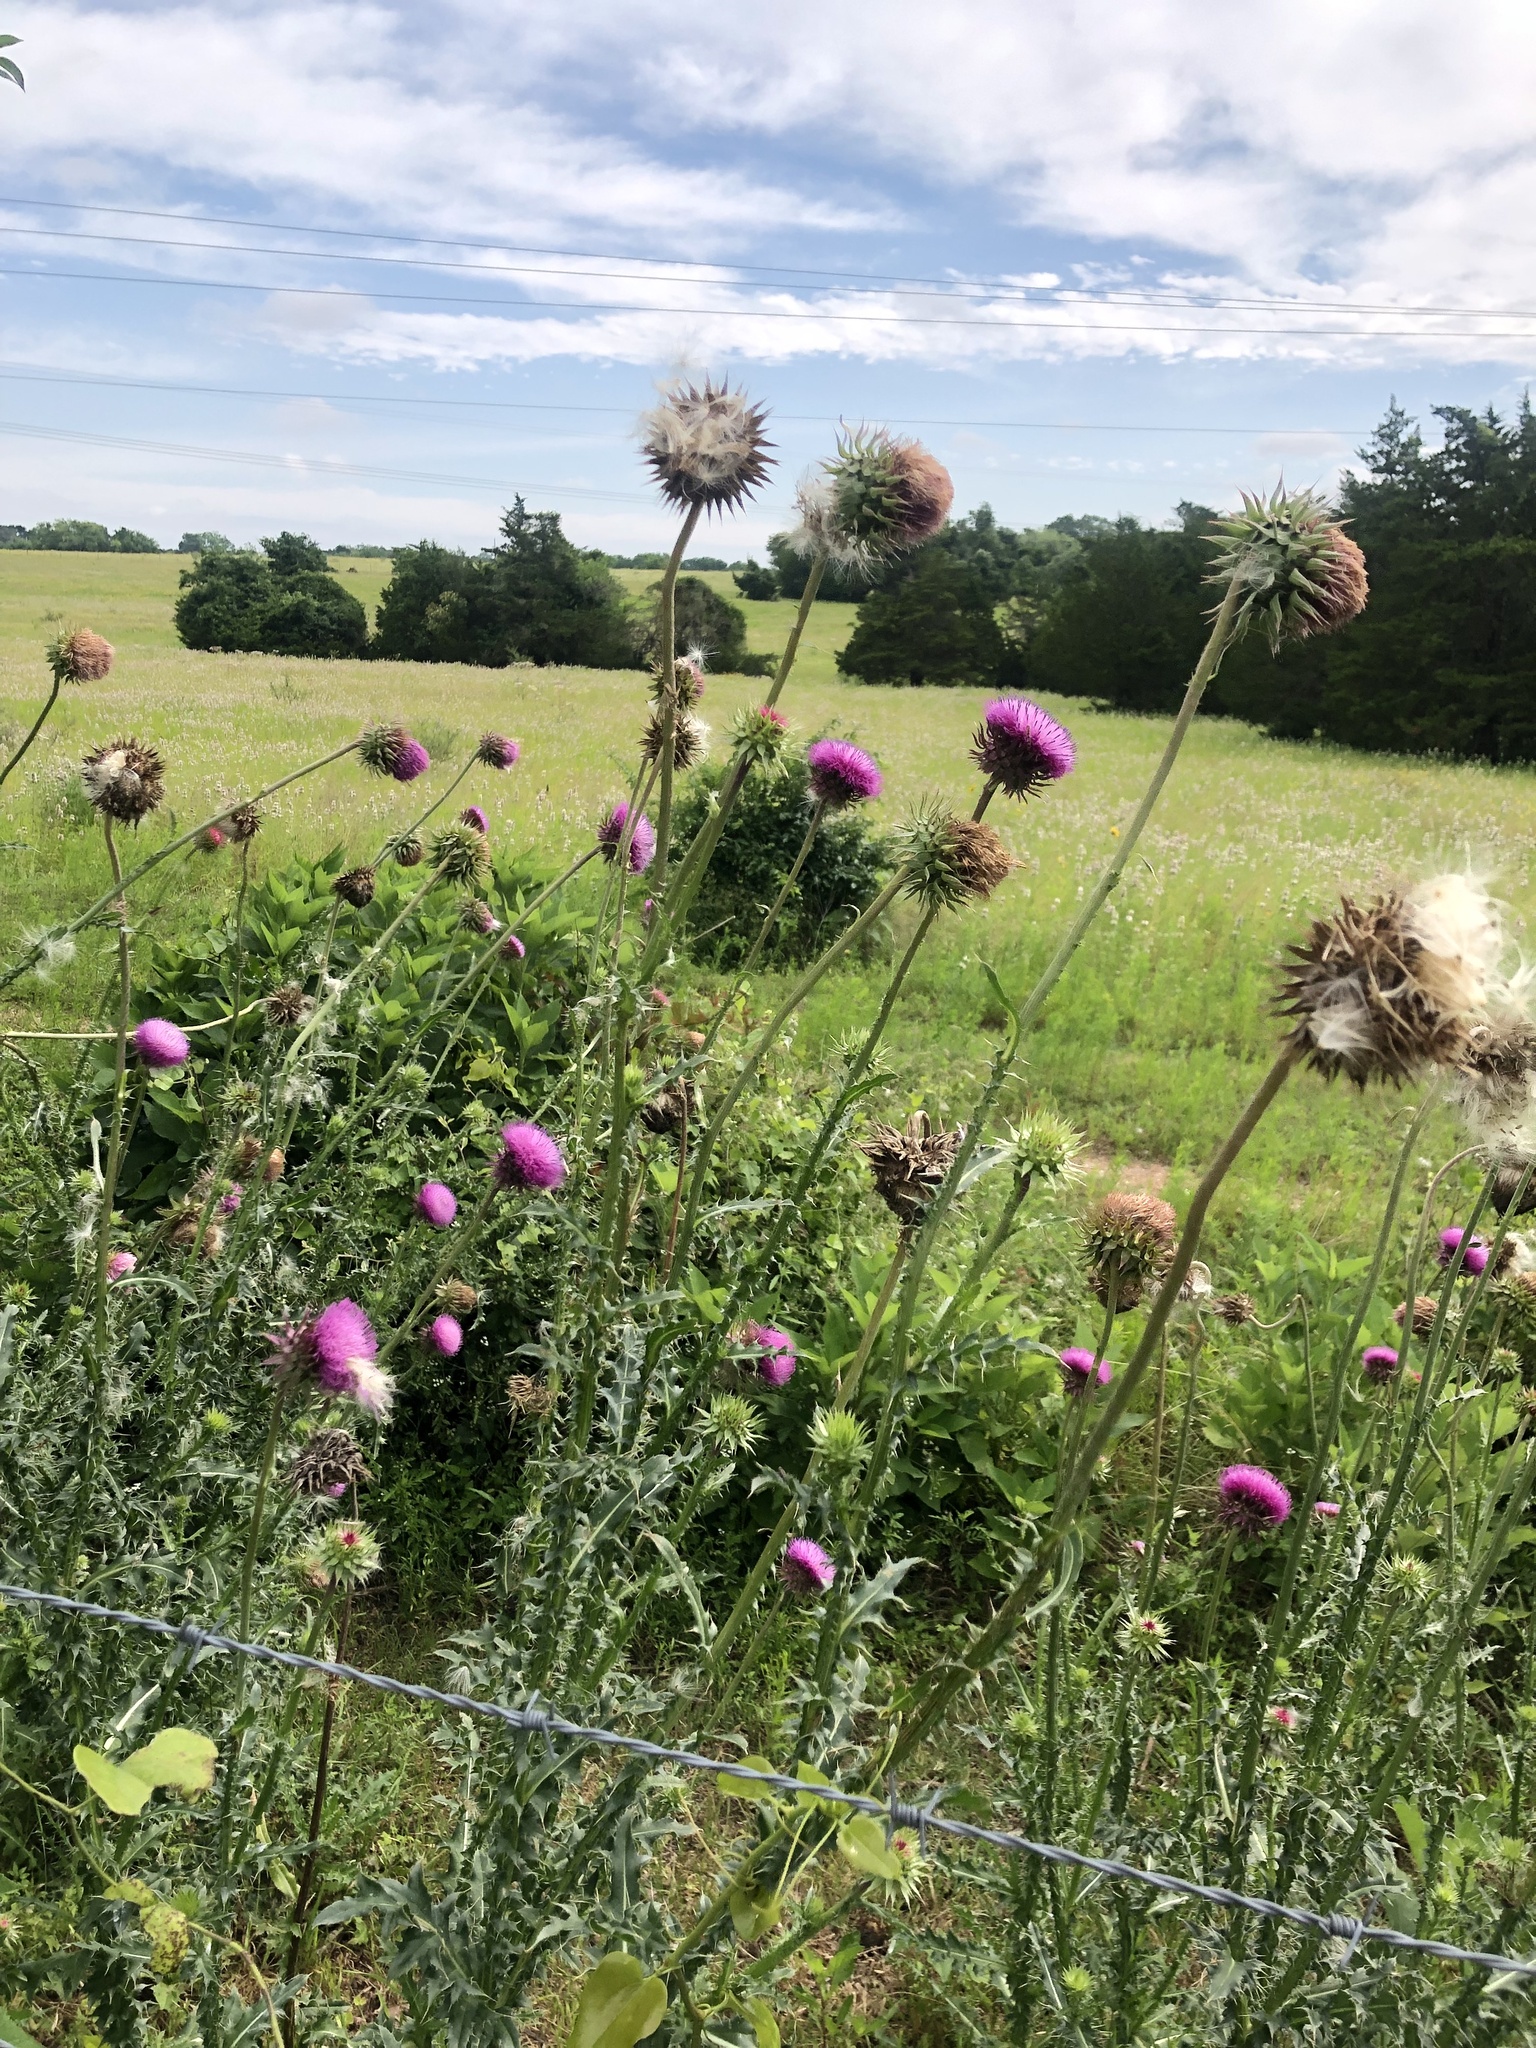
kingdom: Plantae
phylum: Tracheophyta
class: Magnoliopsida
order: Asterales
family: Asteraceae
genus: Carduus
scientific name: Carduus nutans
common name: Musk thistle
